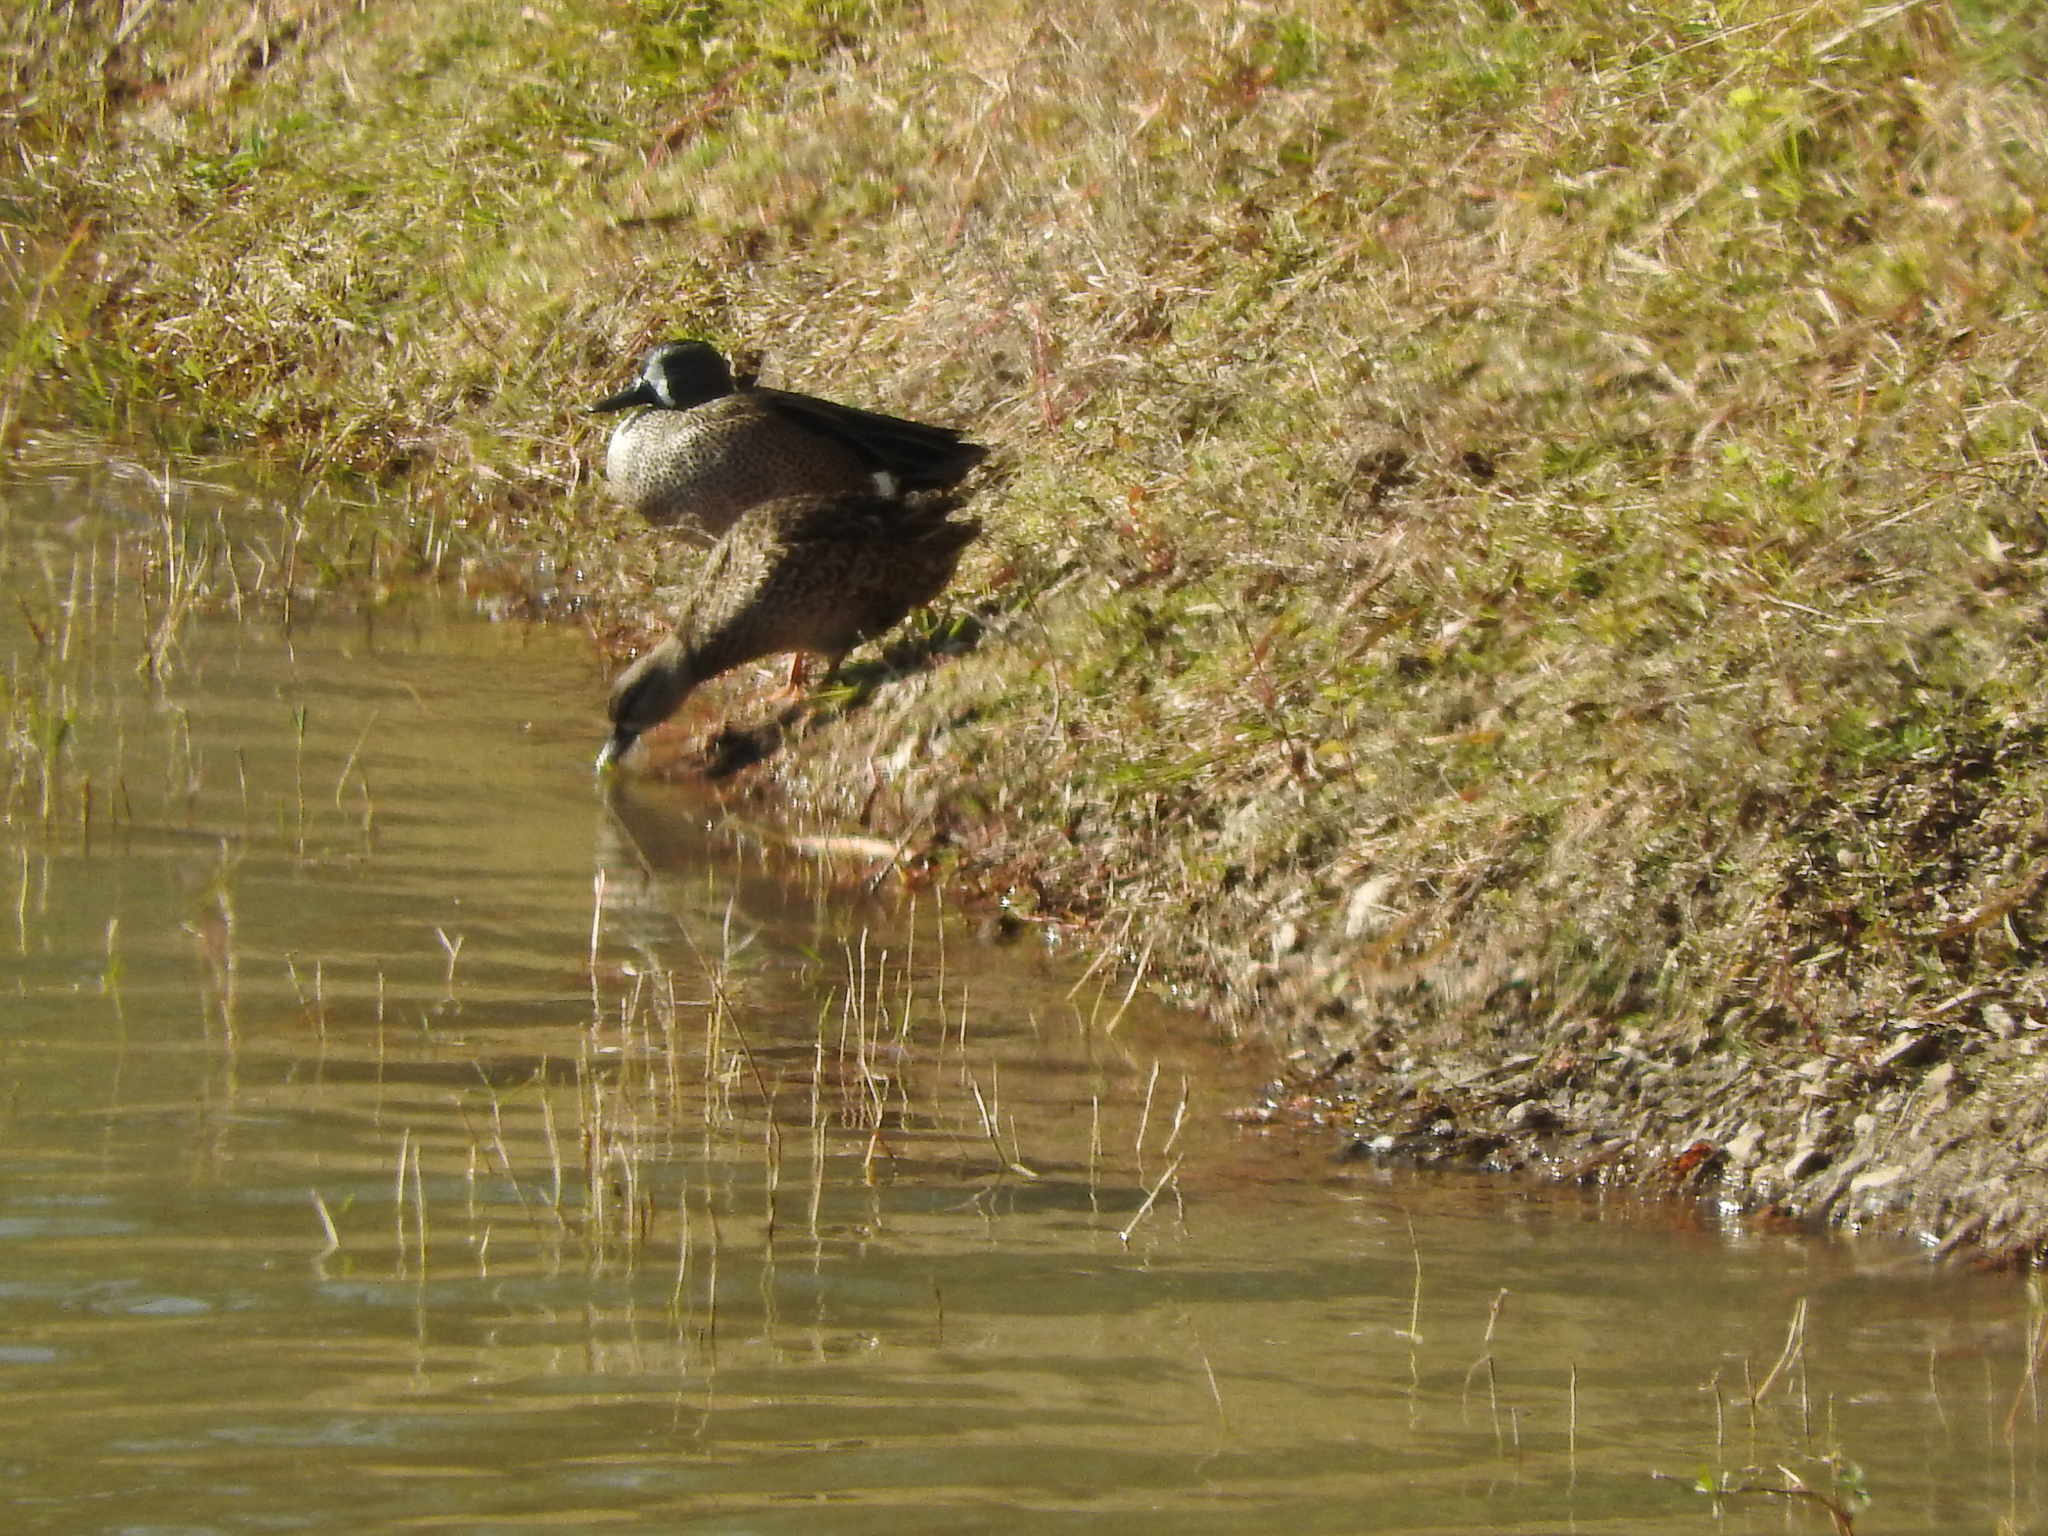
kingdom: Animalia
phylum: Chordata
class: Aves
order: Anseriformes
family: Anatidae
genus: Spatula
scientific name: Spatula discors
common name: Blue-winged teal
